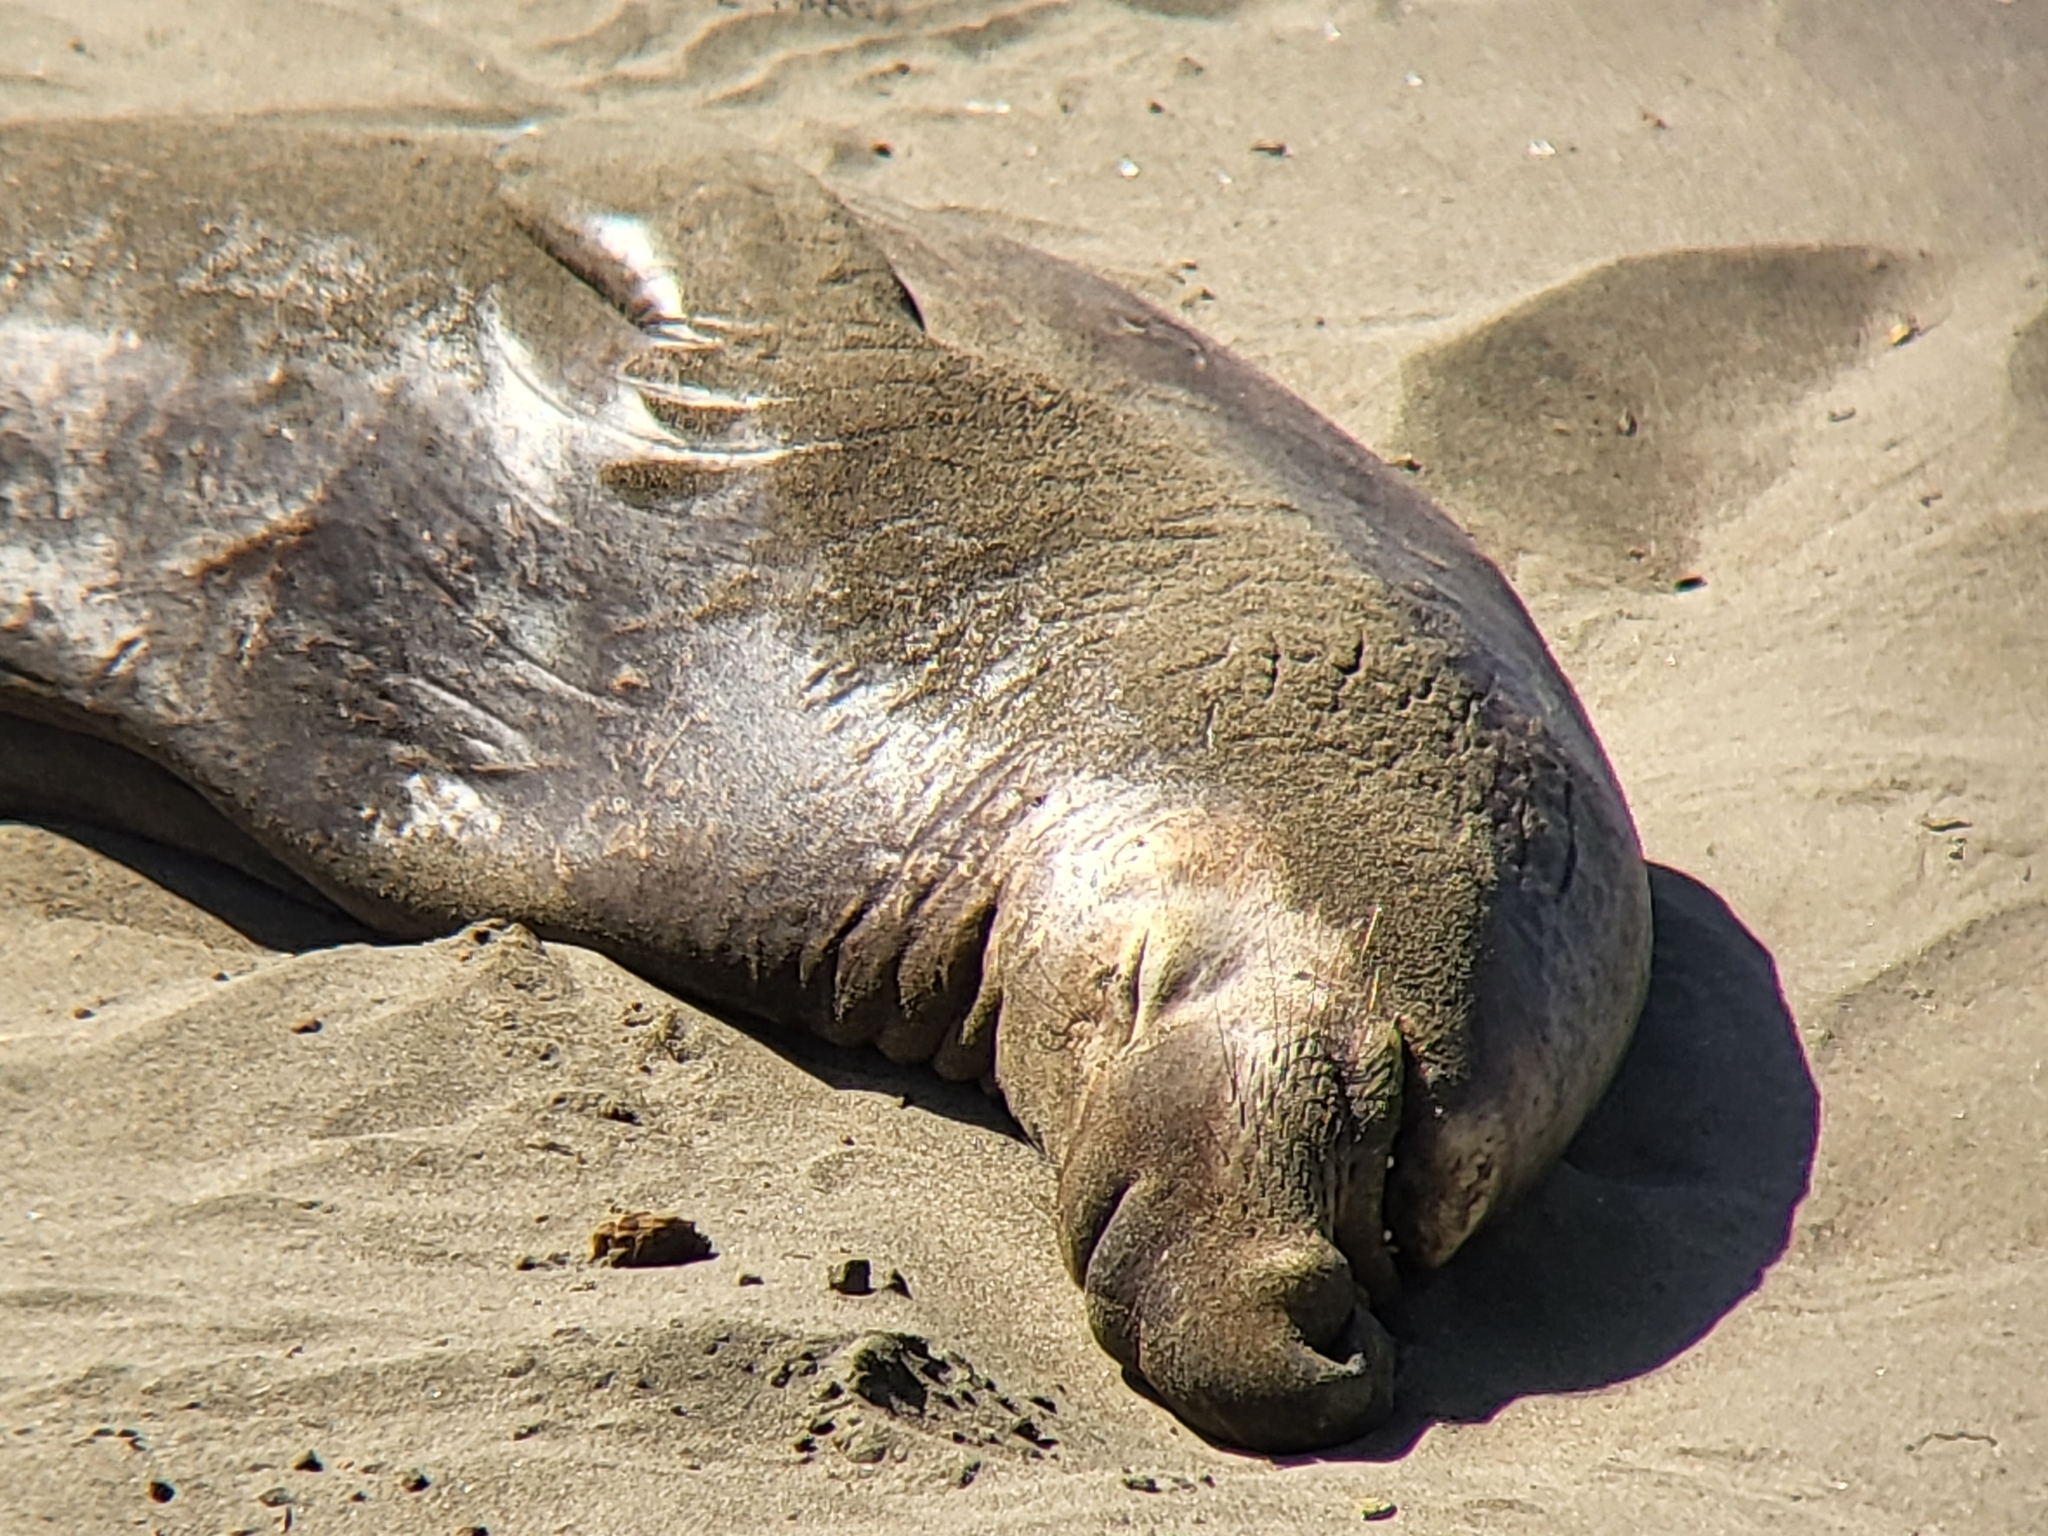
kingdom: Animalia
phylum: Chordata
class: Mammalia
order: Carnivora
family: Phocidae
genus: Mirounga
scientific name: Mirounga angustirostris
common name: Northern elephant seal
